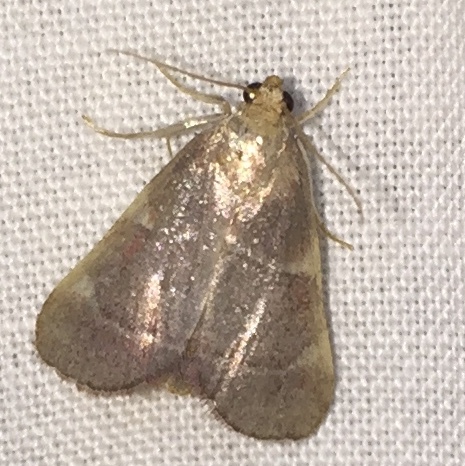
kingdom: Animalia
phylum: Arthropoda
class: Insecta
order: Lepidoptera
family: Pyralidae
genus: Hypsopygia
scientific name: Hypsopygia olinalis
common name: Yellow-fringed dolichomia moth
